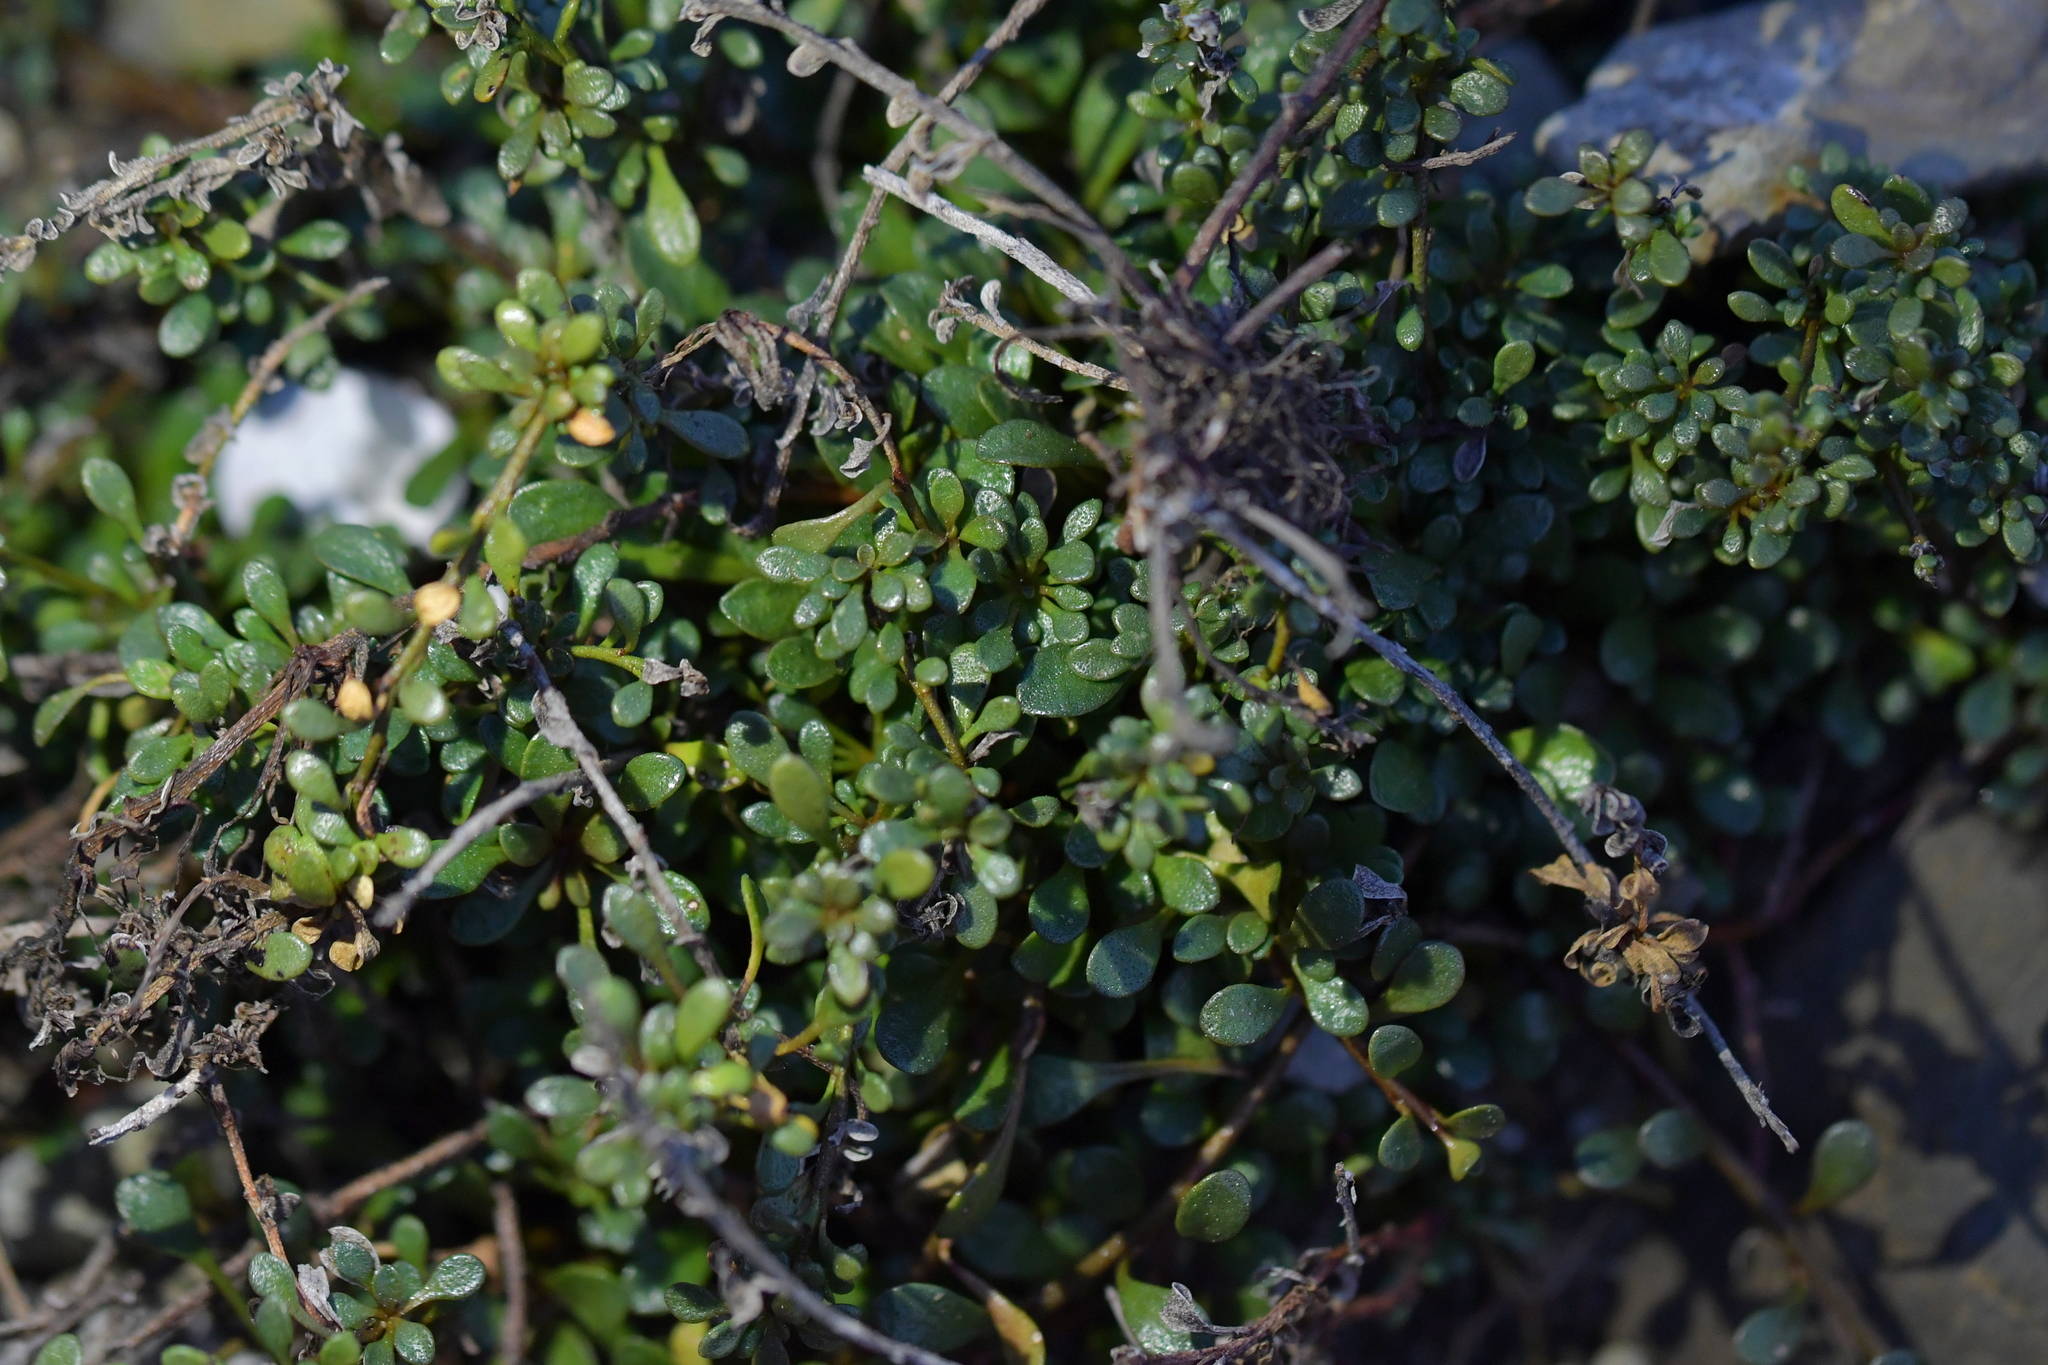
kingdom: Plantae
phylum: Tracheophyta
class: Magnoliopsida
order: Ericales
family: Primulaceae
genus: Samolus
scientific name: Samolus repens
